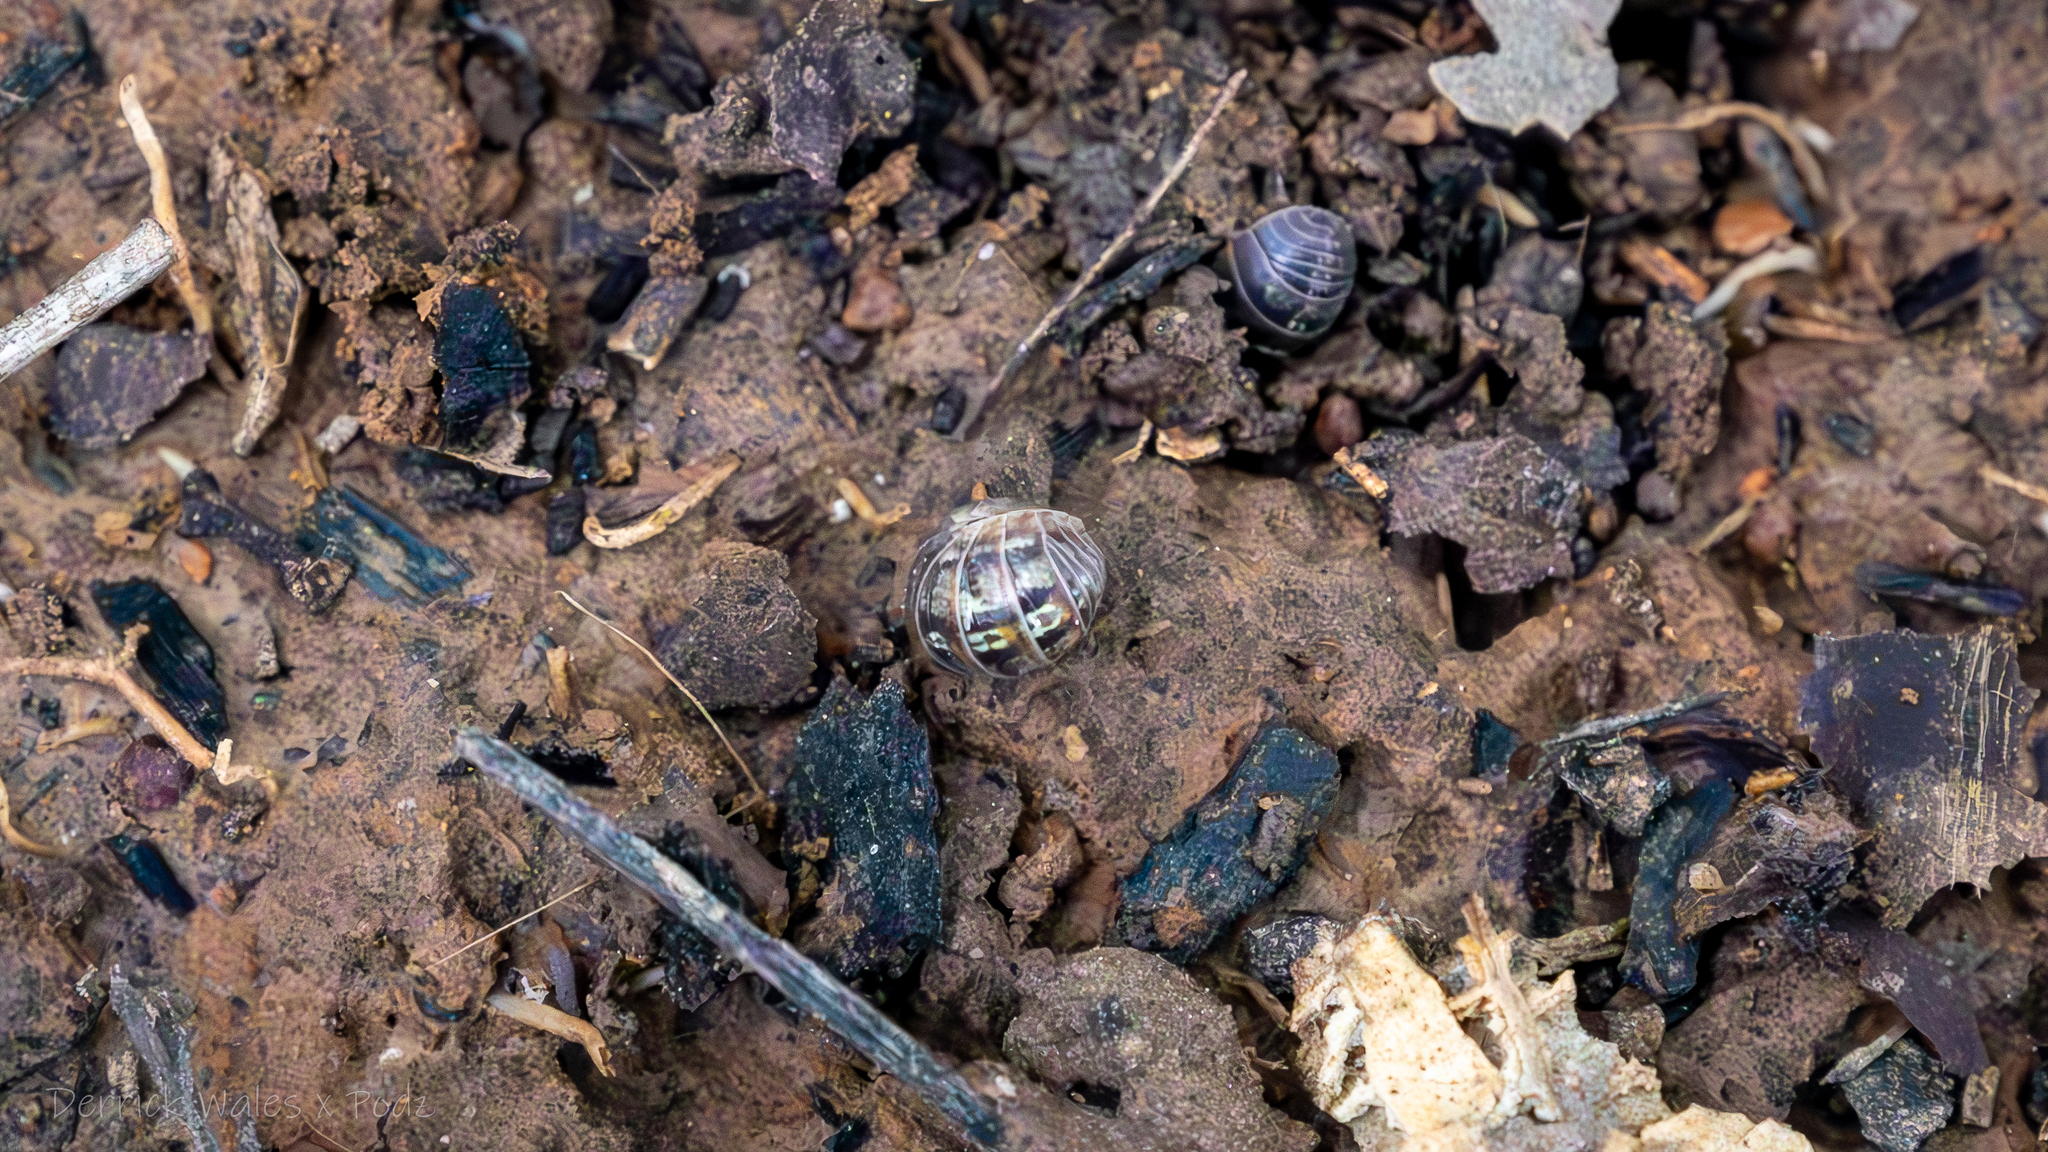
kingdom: Animalia
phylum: Arthropoda
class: Malacostraca
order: Isopoda
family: Armadillidiidae
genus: Armadillidium
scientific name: Armadillidium vulgare
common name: Common pill woodlouse
